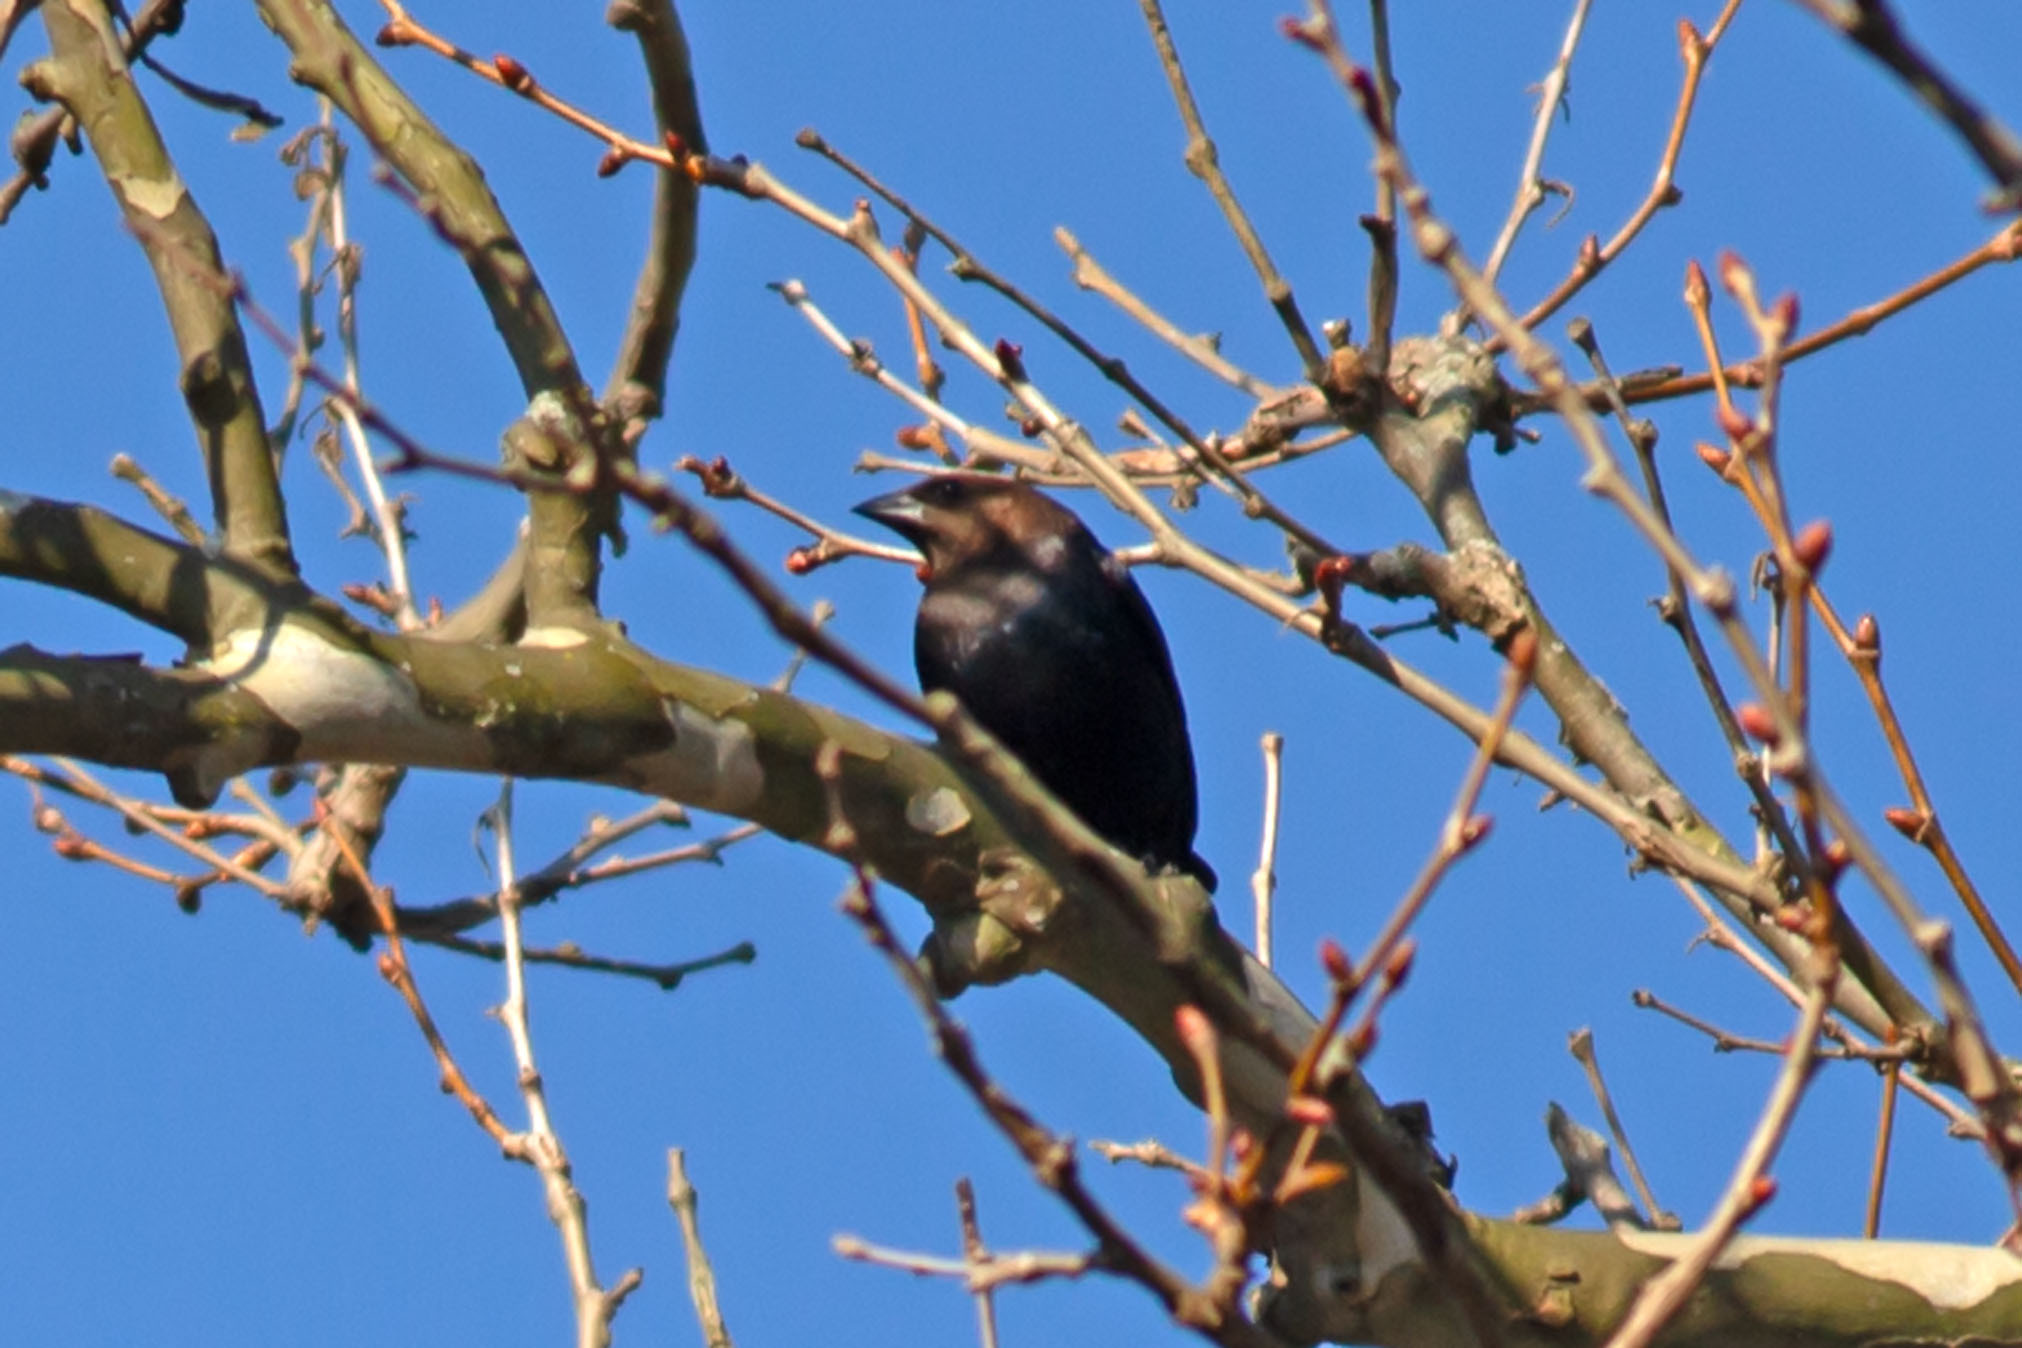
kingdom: Animalia
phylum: Chordata
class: Aves
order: Passeriformes
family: Icteridae
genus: Molothrus
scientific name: Molothrus ater
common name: Brown-headed cowbird
